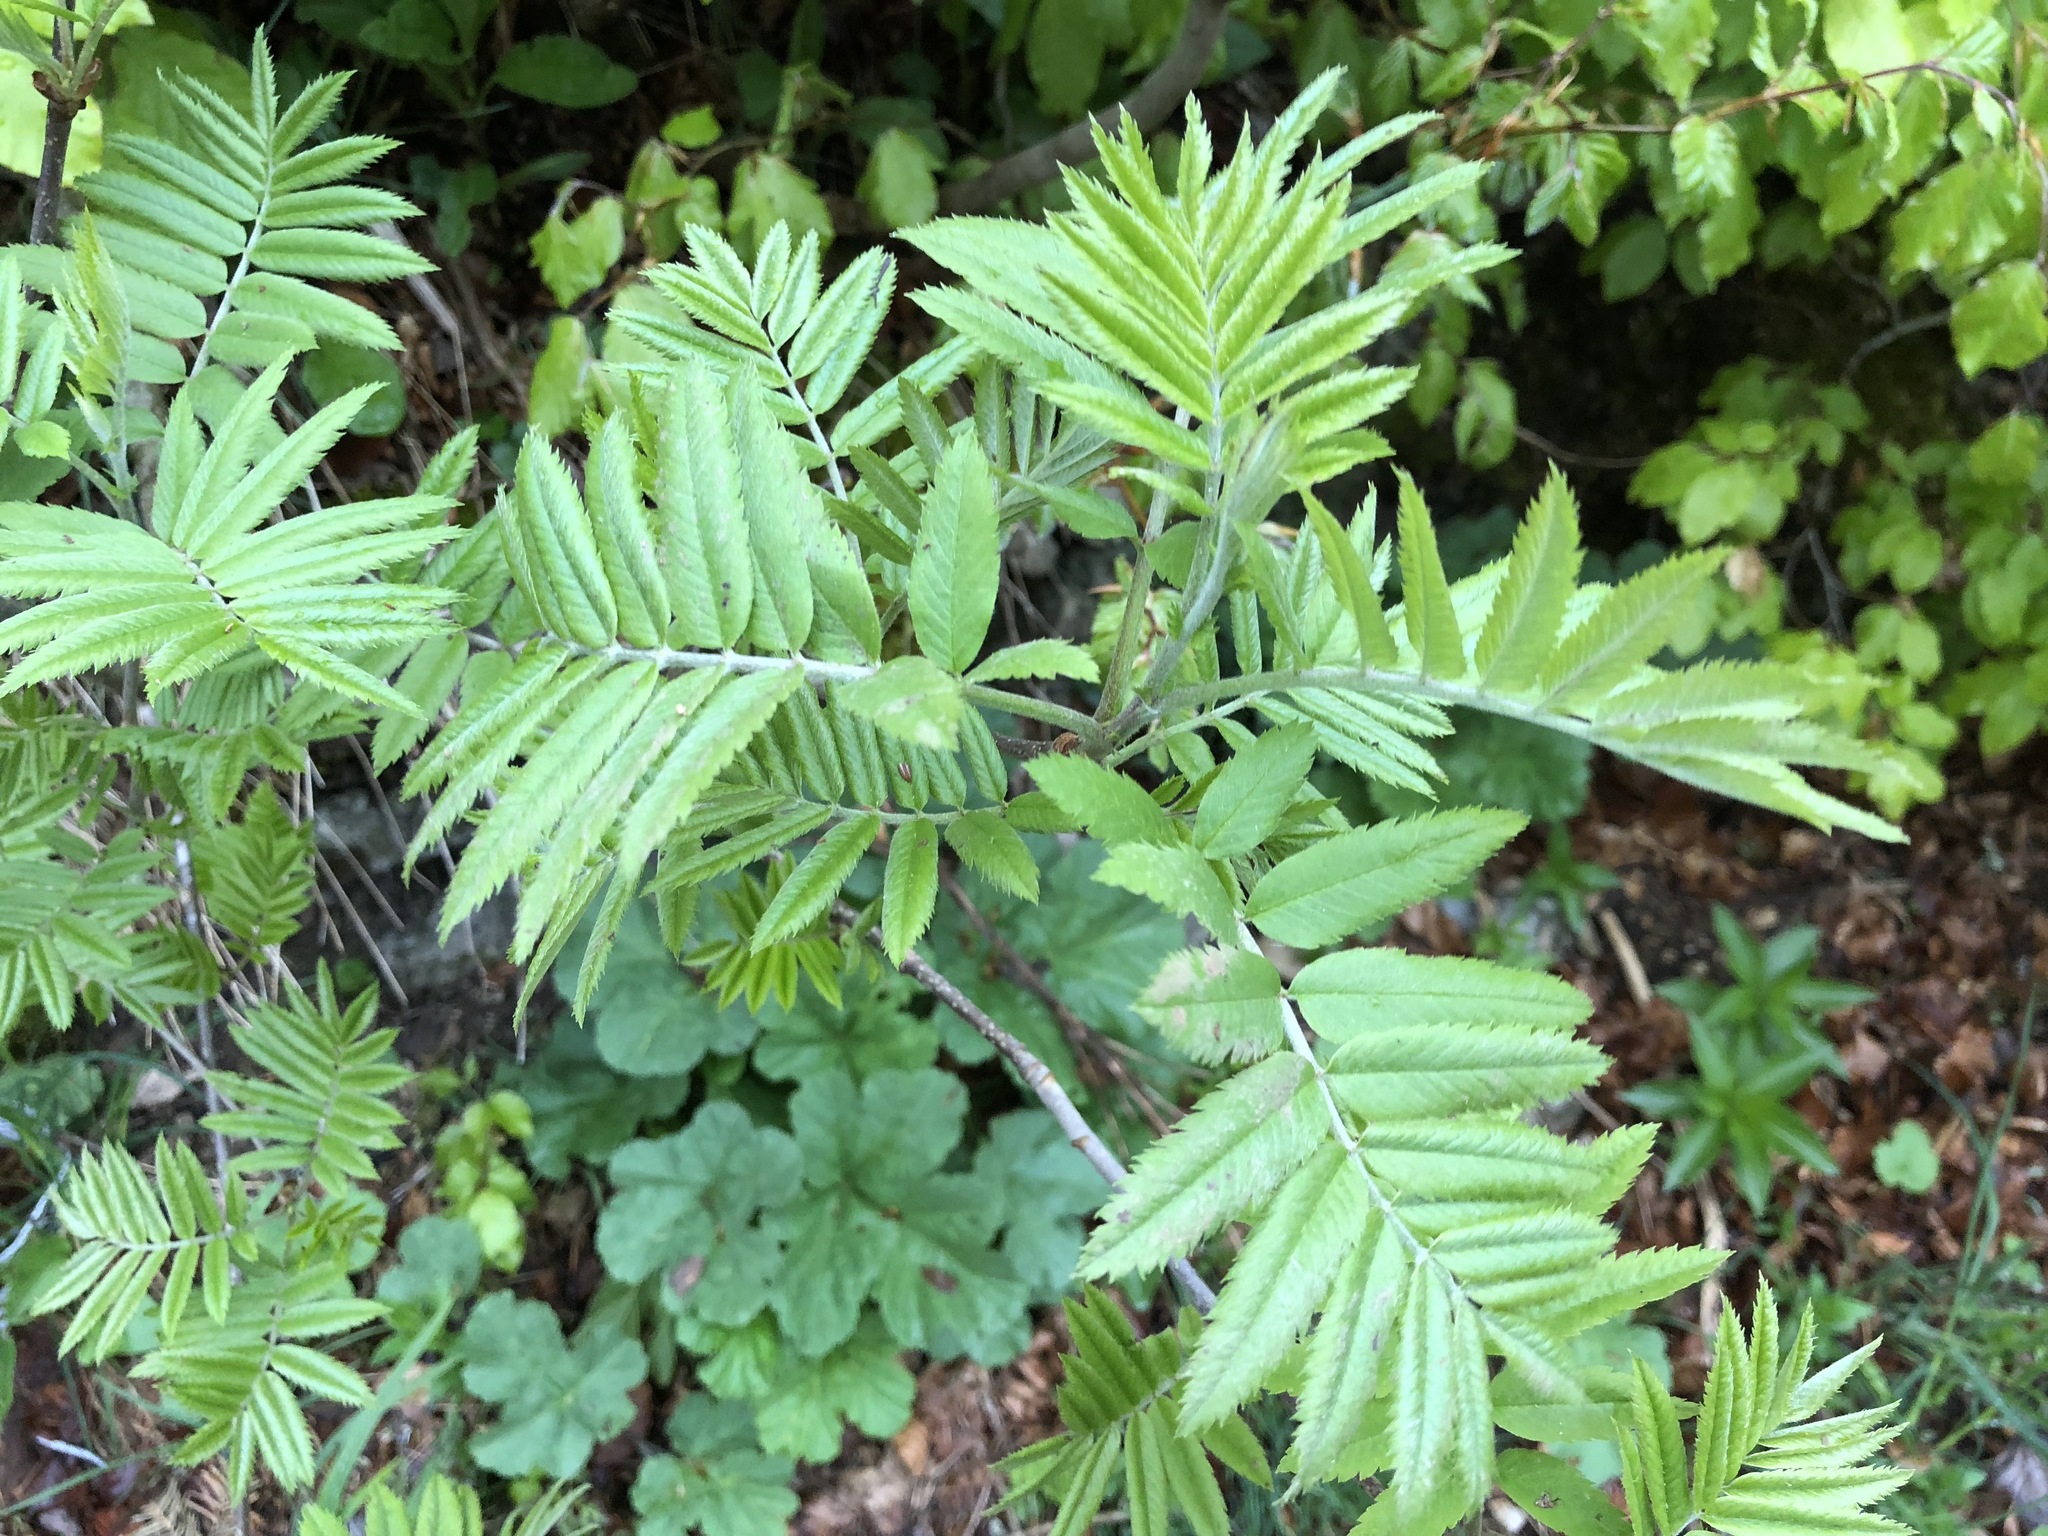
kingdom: Plantae
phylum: Tracheophyta
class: Magnoliopsida
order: Rosales
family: Rosaceae
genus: Sorbus
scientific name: Sorbus aucuparia
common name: Rowan
